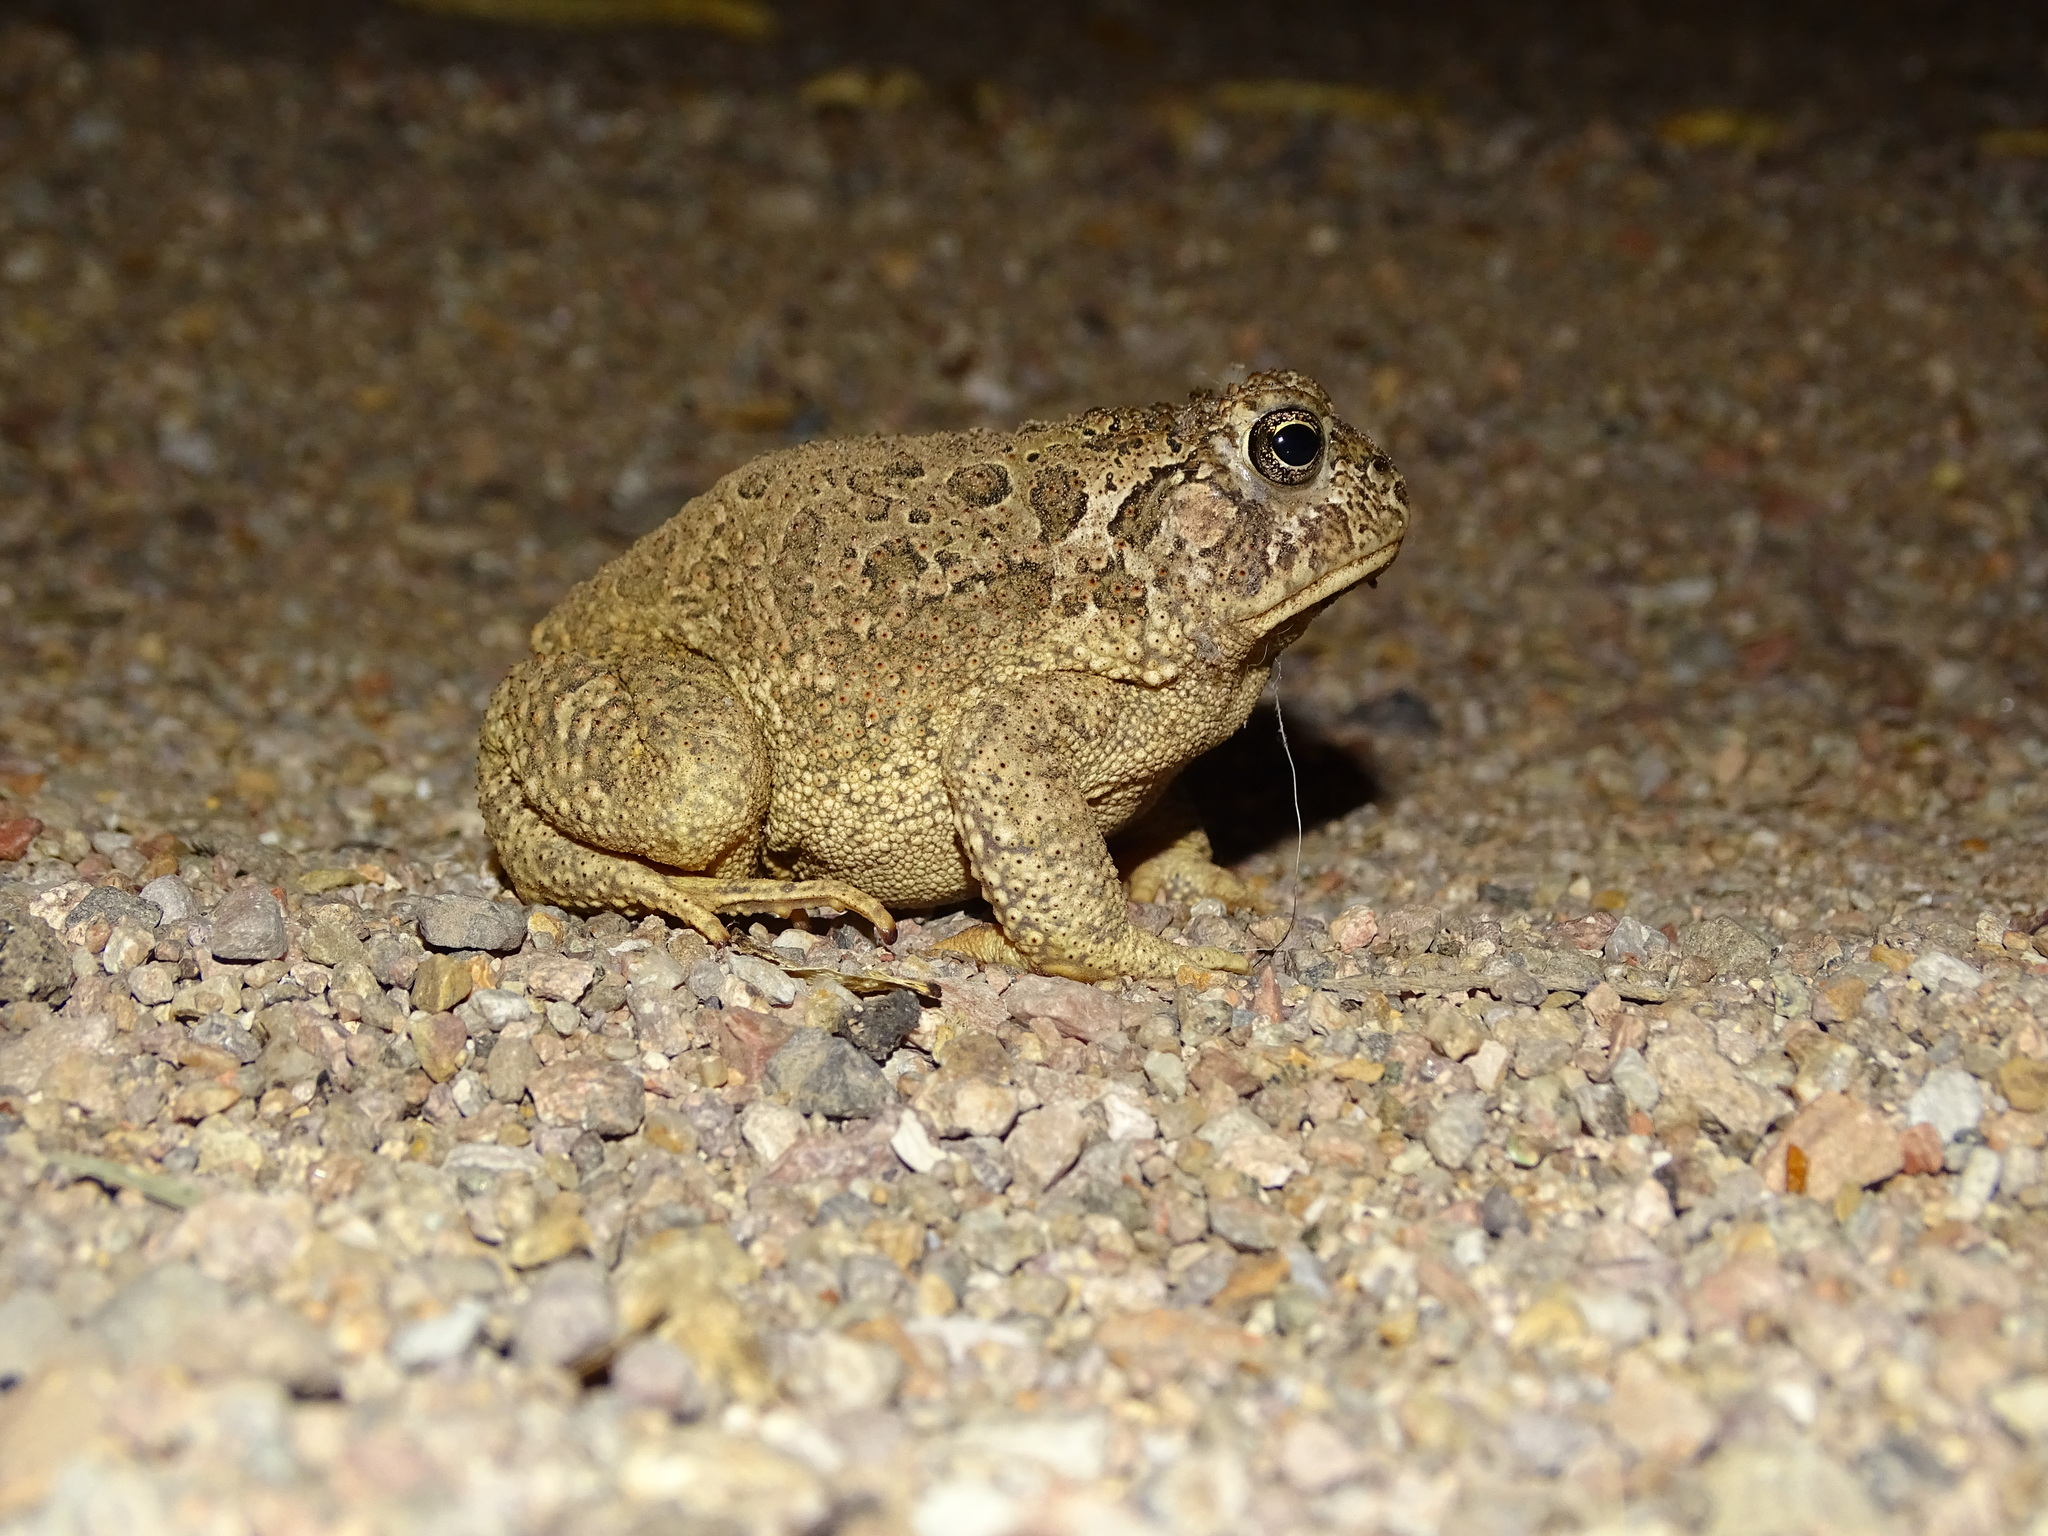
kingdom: Animalia
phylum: Chordata
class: Amphibia
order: Anura
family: Bufonidae
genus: Anaxyrus
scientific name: Anaxyrus cognatus
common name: Great plains toad
